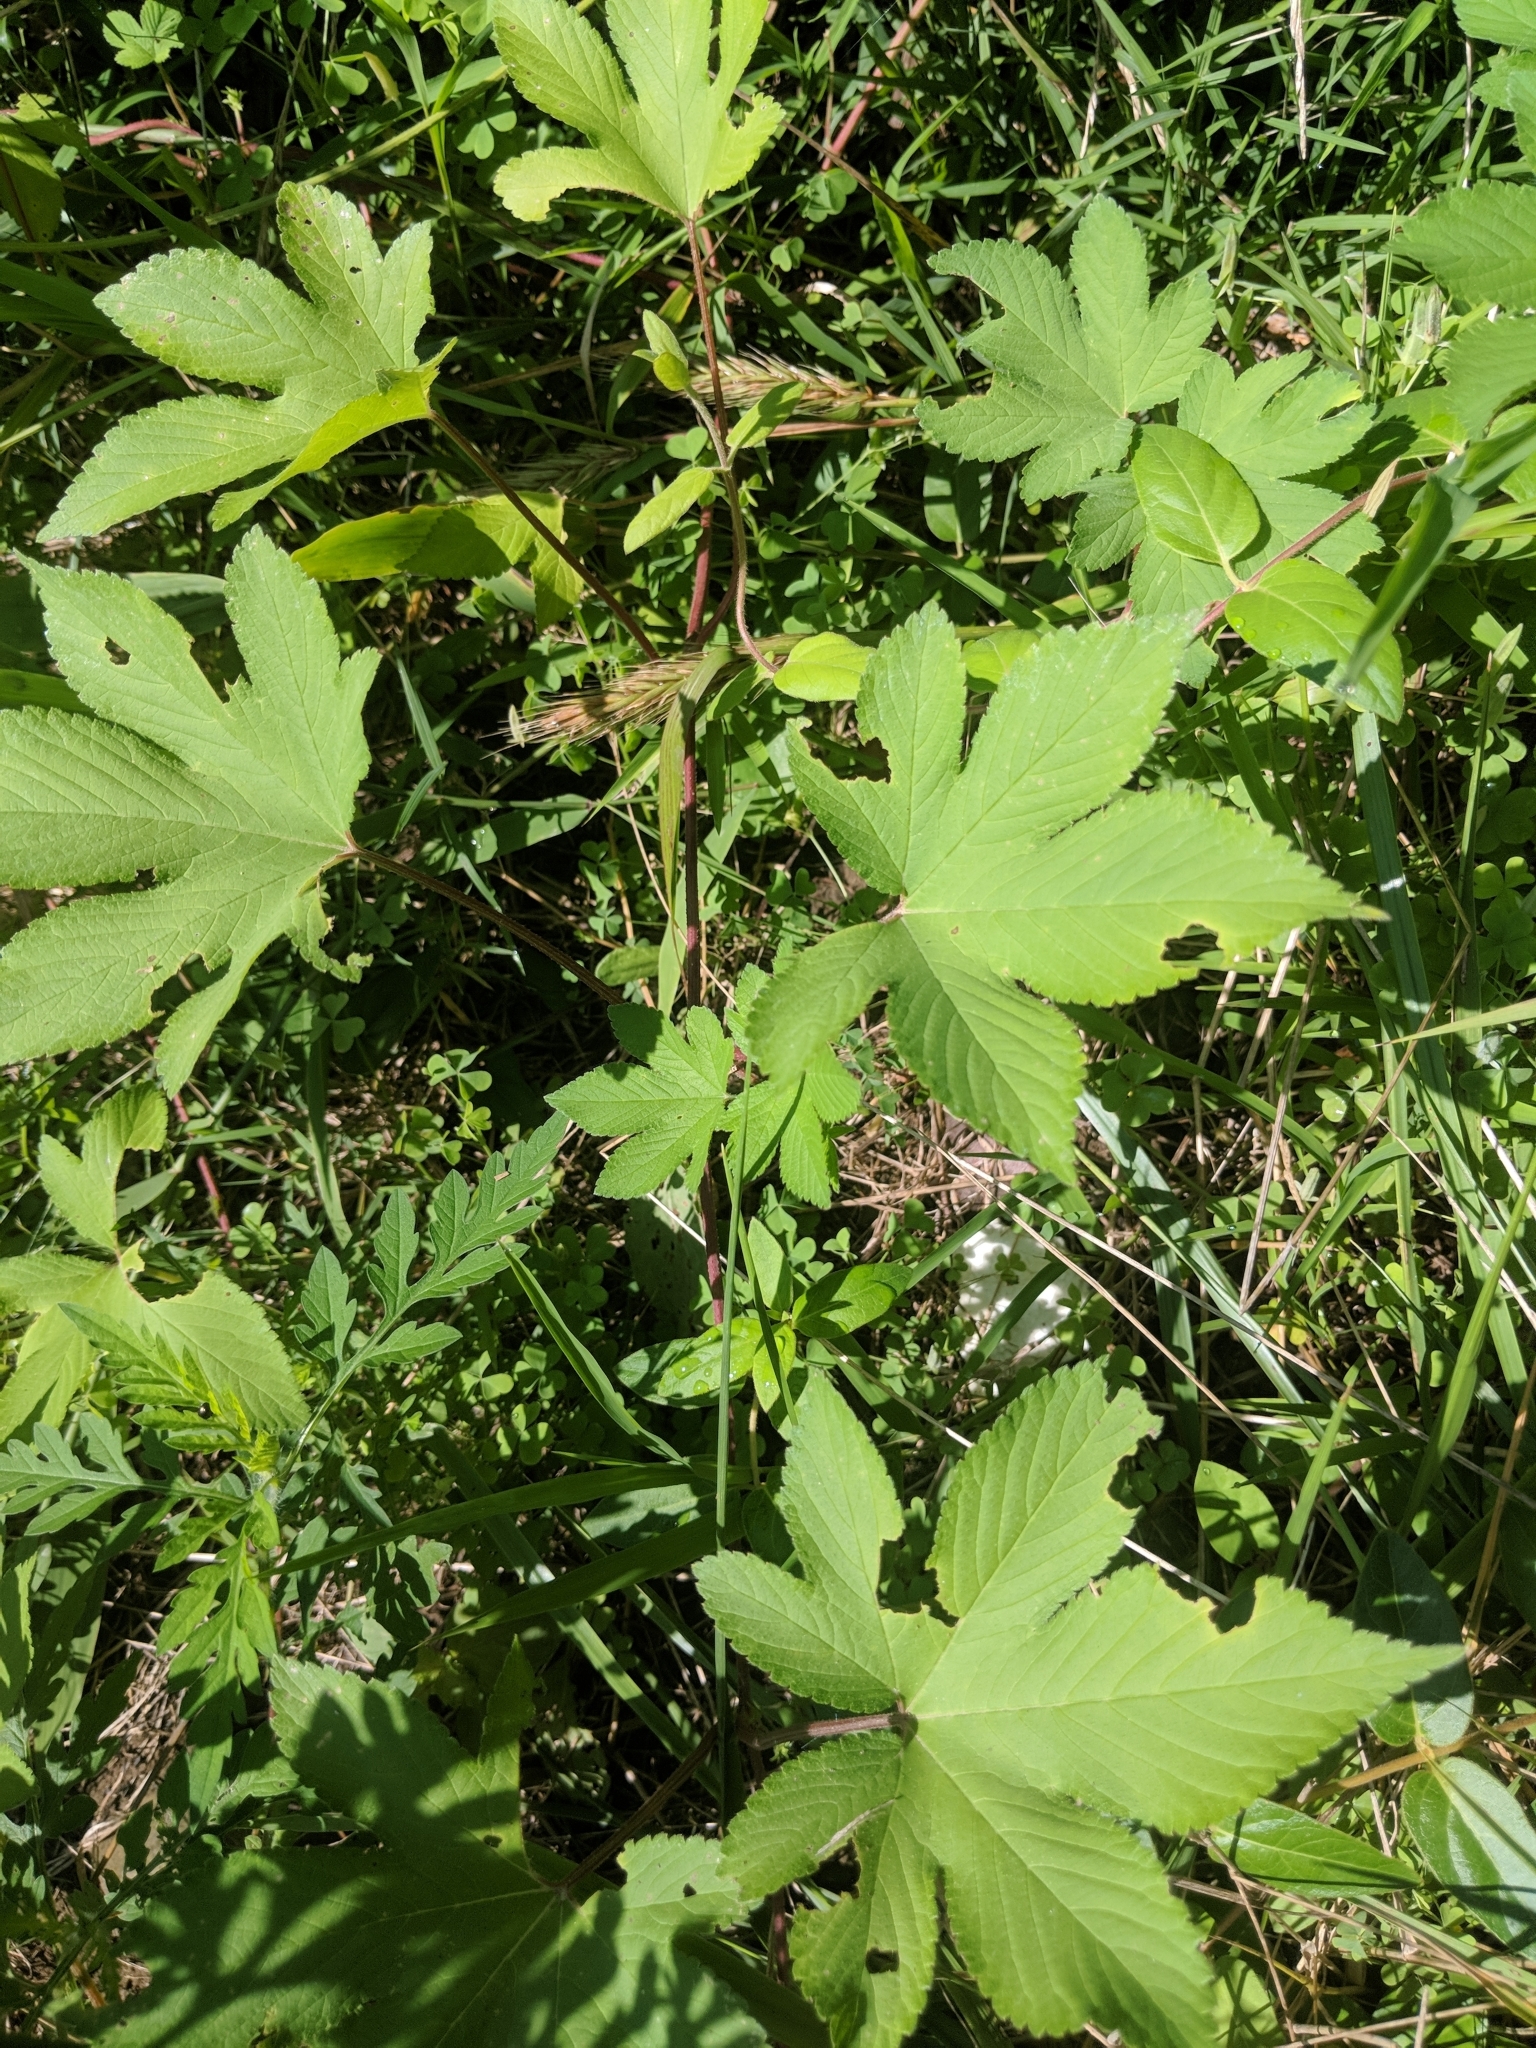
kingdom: Plantae
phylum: Tracheophyta
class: Magnoliopsida
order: Rosales
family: Cannabaceae
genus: Humulus
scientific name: Humulus scandens
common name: Japanese hop
